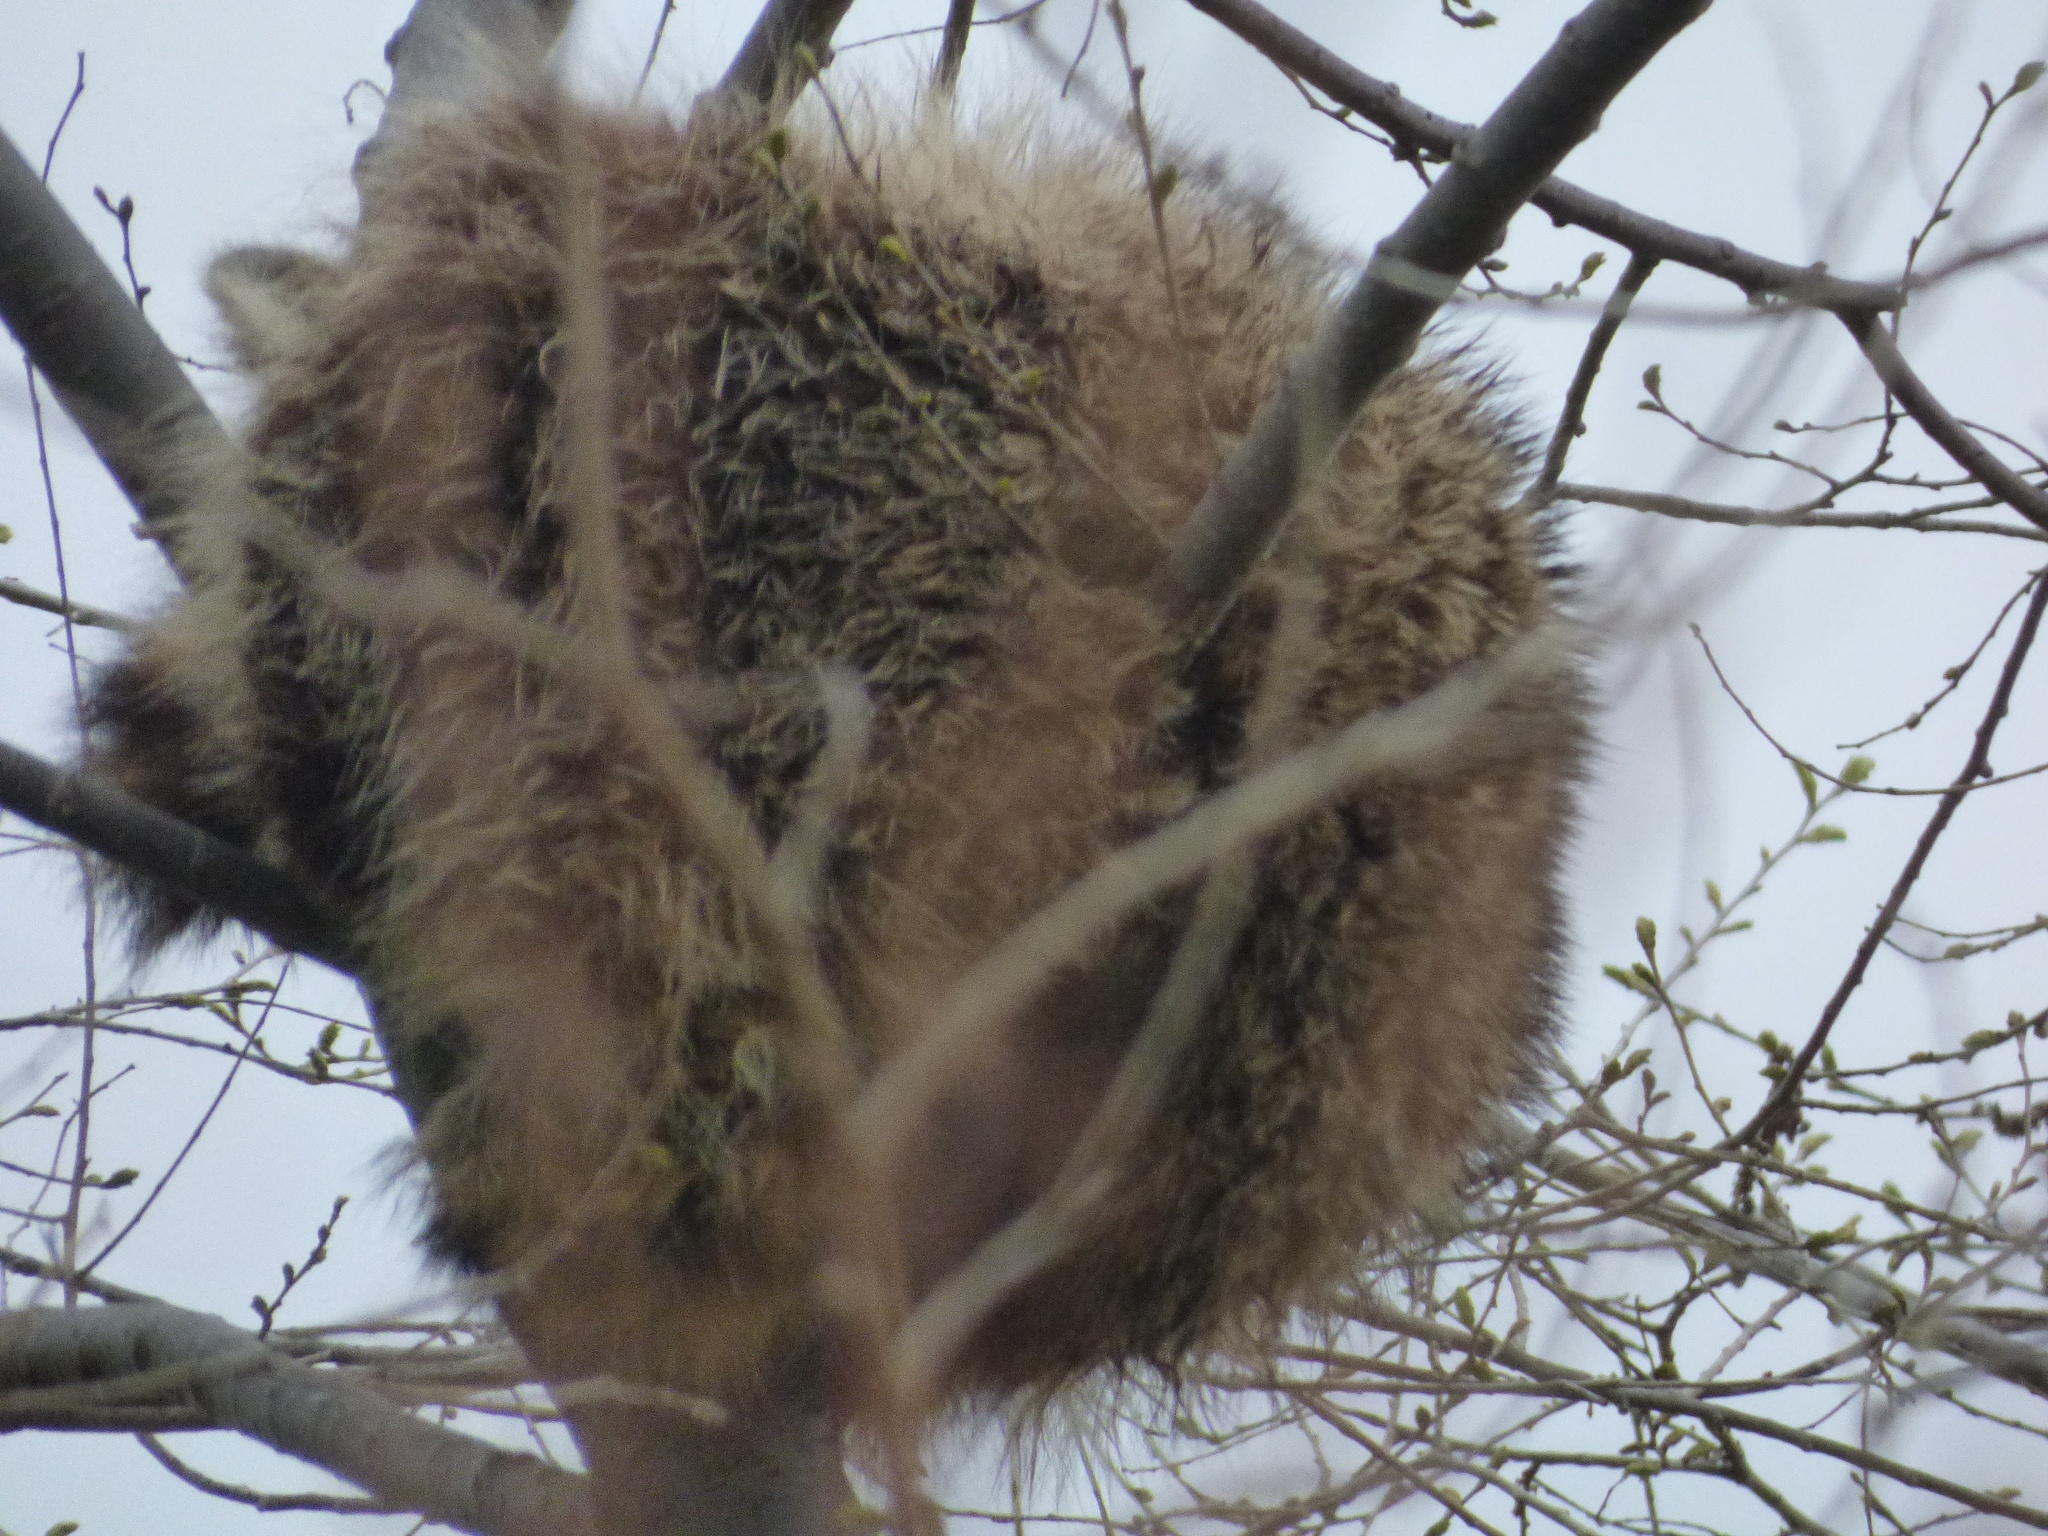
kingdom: Animalia
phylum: Chordata
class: Mammalia
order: Carnivora
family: Procyonidae
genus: Procyon
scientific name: Procyon lotor
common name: Raccoon
